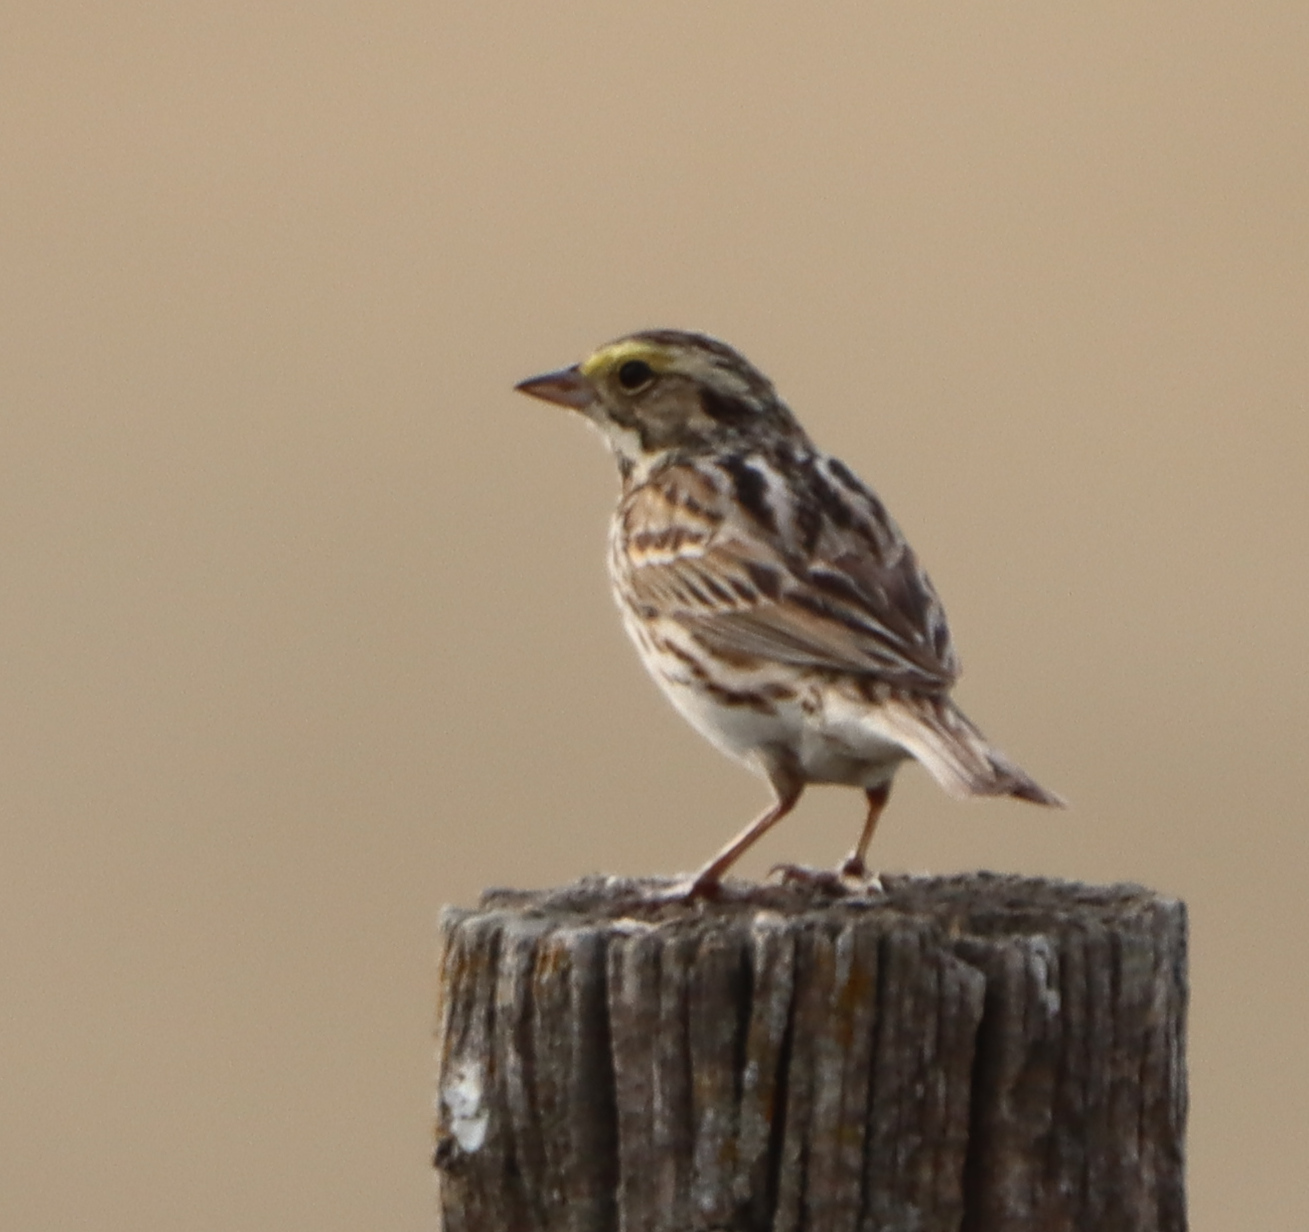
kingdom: Animalia
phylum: Chordata
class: Aves
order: Passeriformes
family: Passerellidae
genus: Passerculus
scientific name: Passerculus sandwichensis
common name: Savannah sparrow
